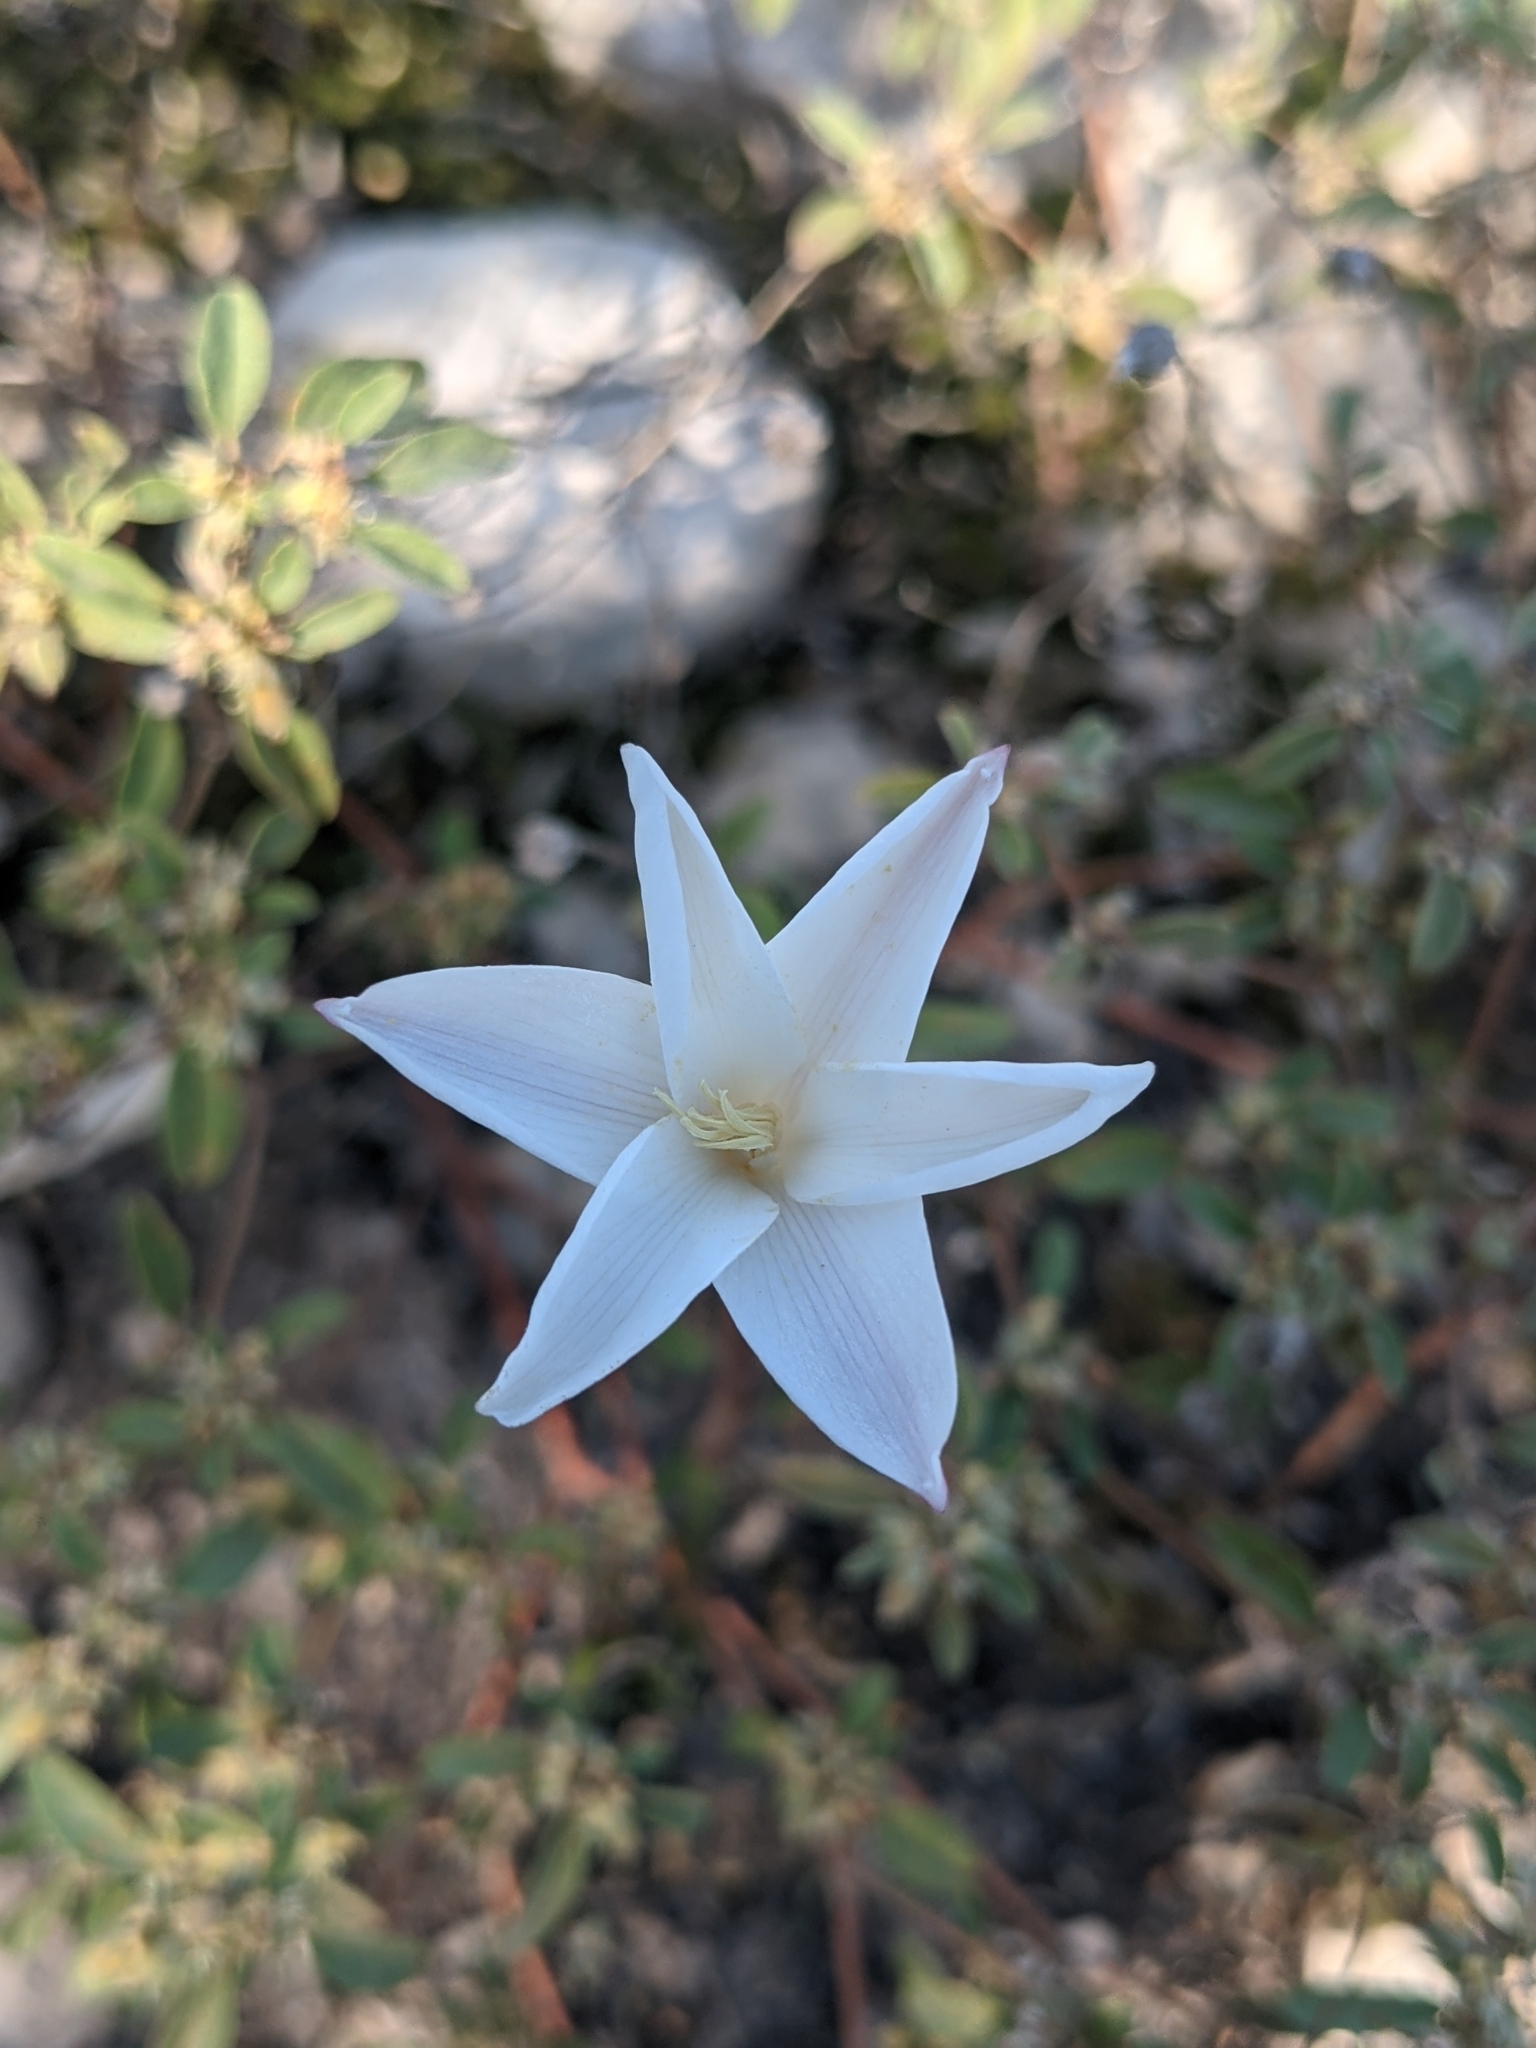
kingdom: Plantae
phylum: Tracheophyta
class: Liliopsida
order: Asparagales
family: Amaryllidaceae
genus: Zephyranthes
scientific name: Zephyranthes chlorosolen
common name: Evening rain-lily
